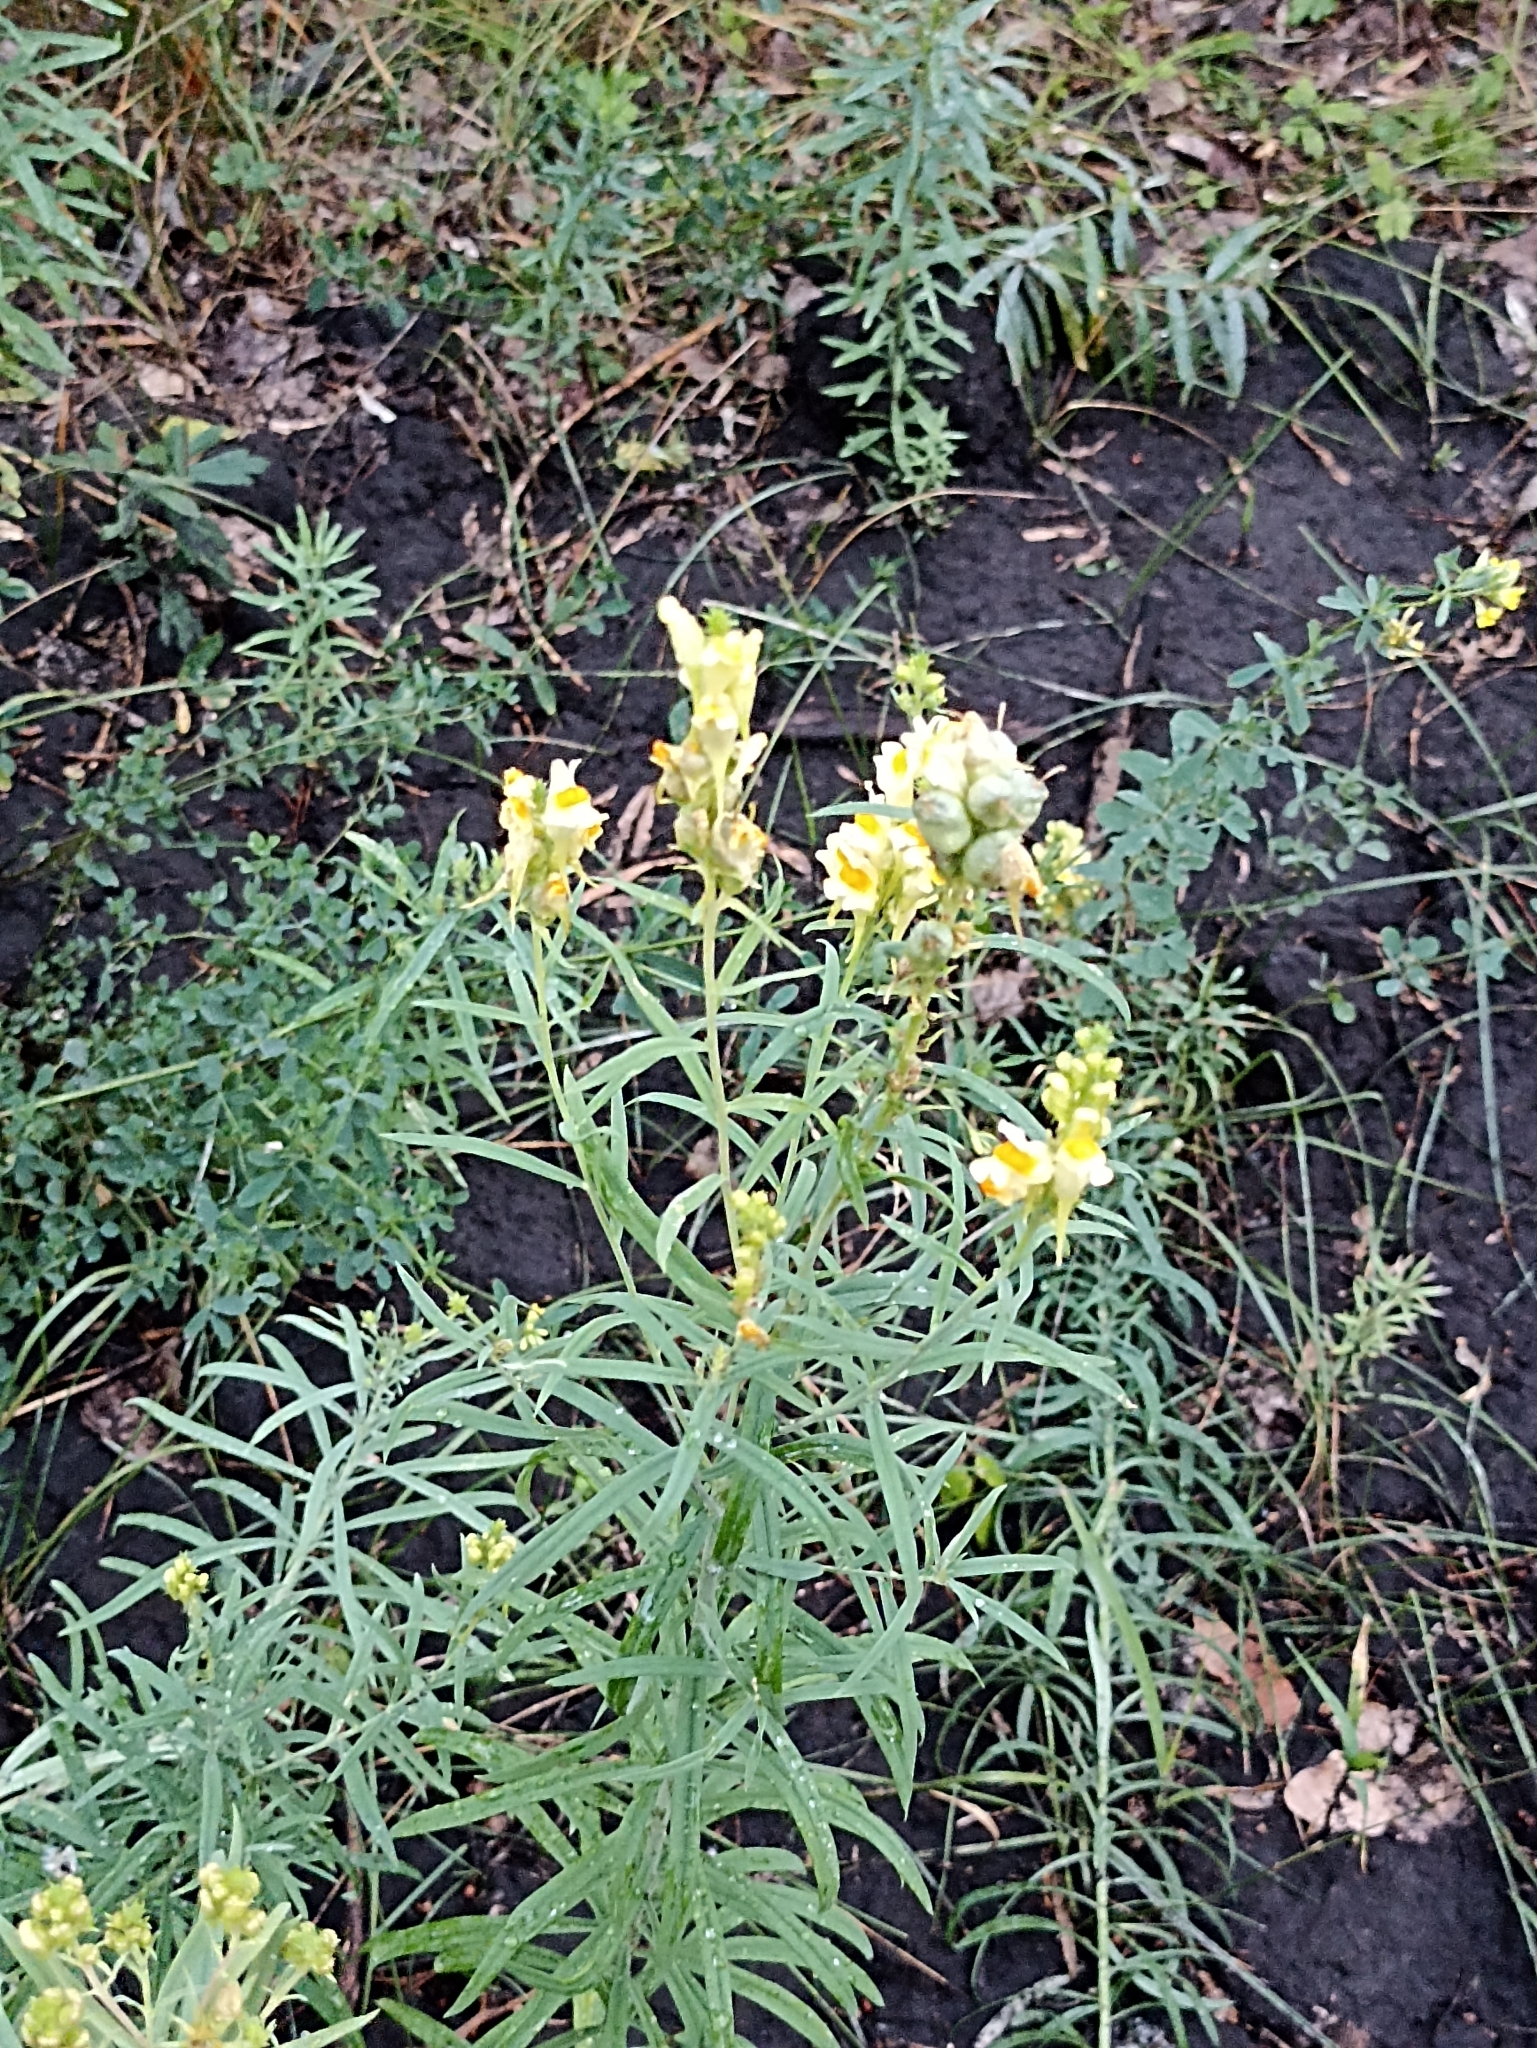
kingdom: Plantae
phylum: Tracheophyta
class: Magnoliopsida
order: Lamiales
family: Plantaginaceae
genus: Linaria
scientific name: Linaria vulgaris
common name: Butter and eggs
